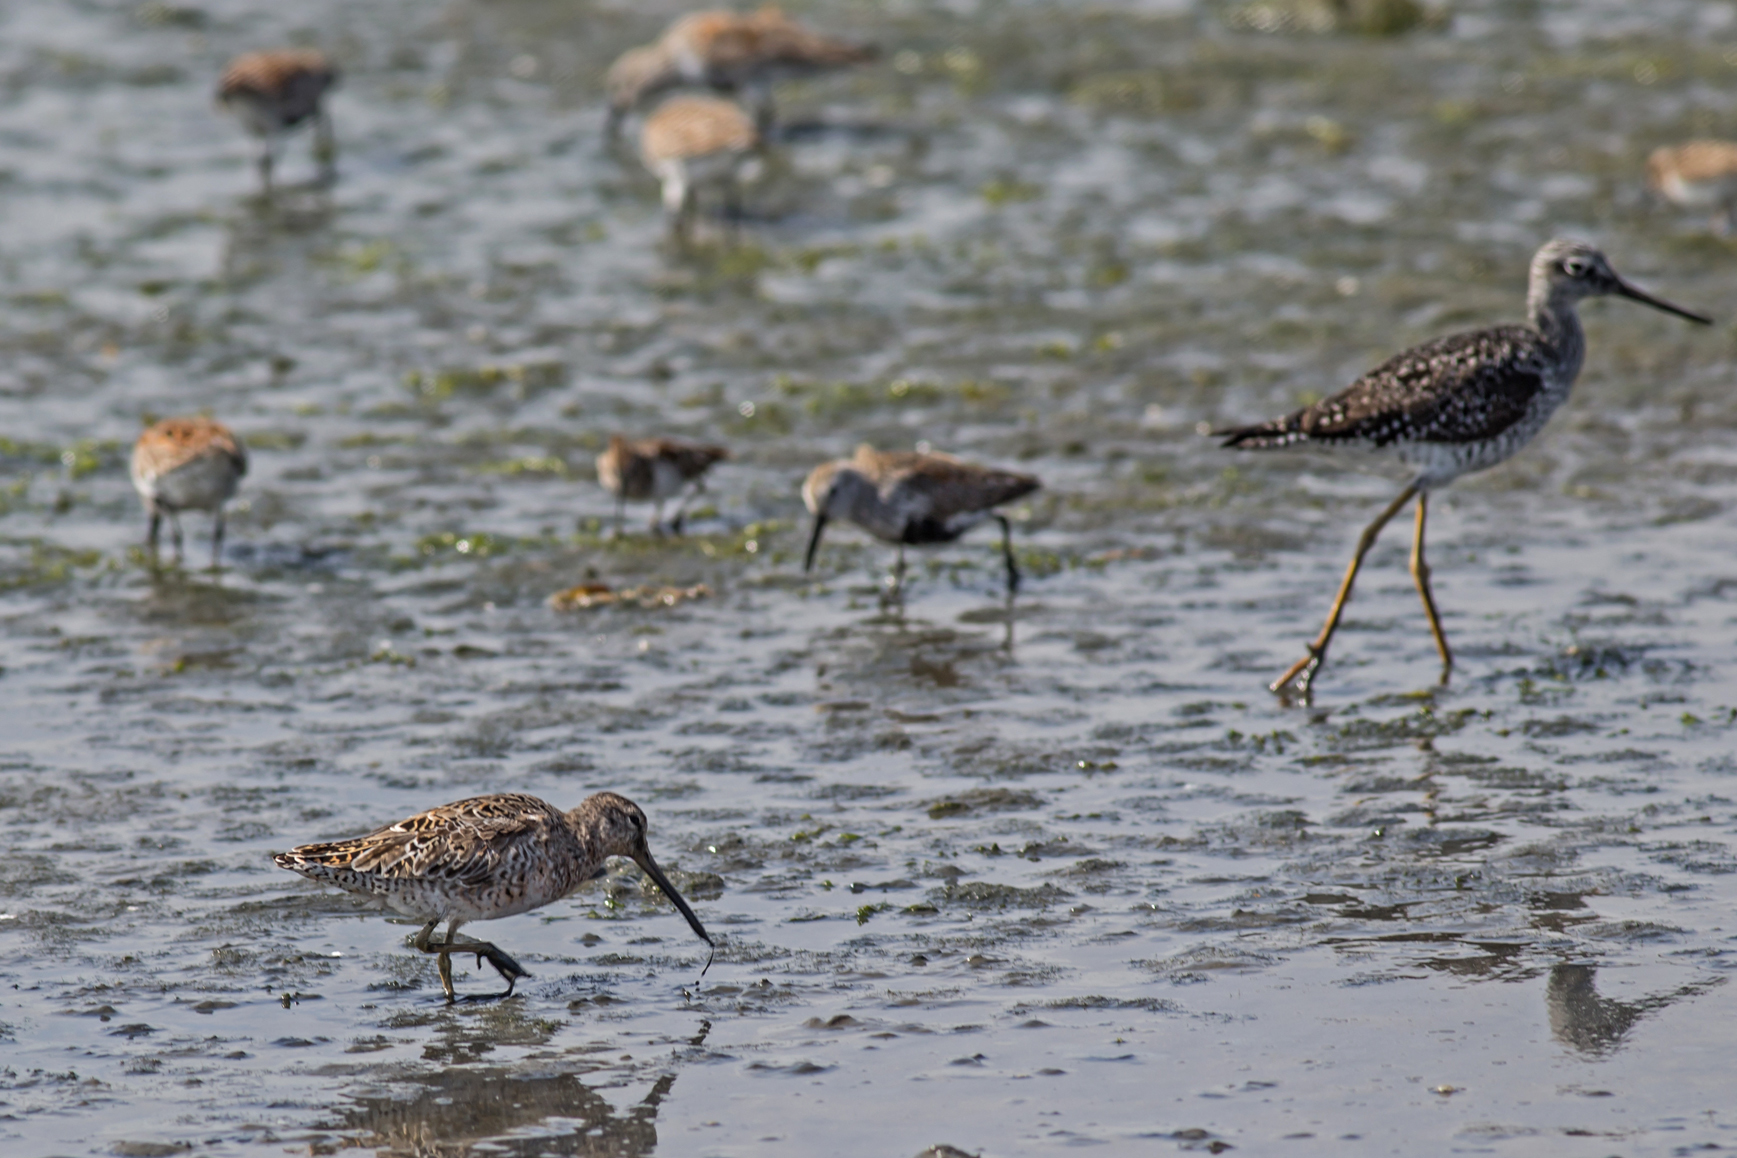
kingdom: Animalia
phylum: Chordata
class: Aves
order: Charadriiformes
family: Scolopacidae
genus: Limnodromus
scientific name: Limnodromus griseus
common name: Short-billed dowitcher
